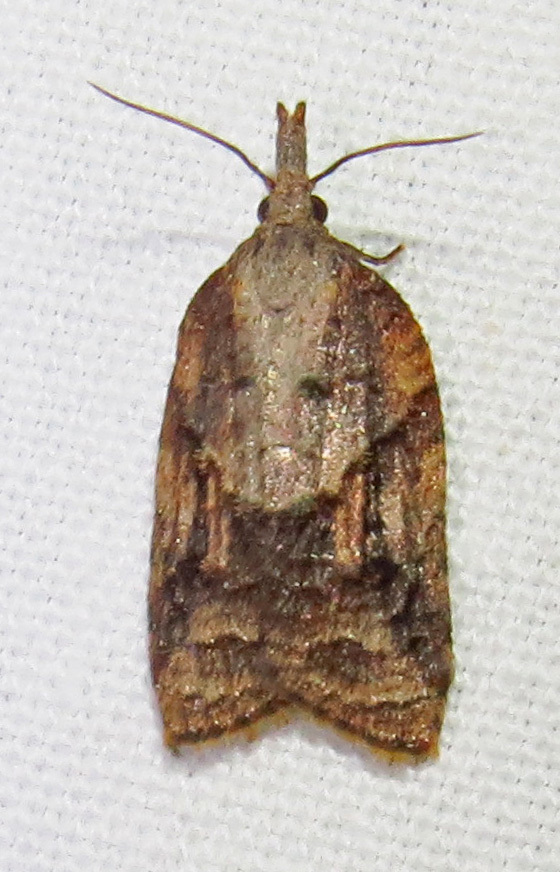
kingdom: Animalia
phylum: Arthropoda
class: Insecta
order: Lepidoptera
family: Tortricidae
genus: Platynota
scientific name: Platynota idaeusalis
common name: Tufted apple bud moth
